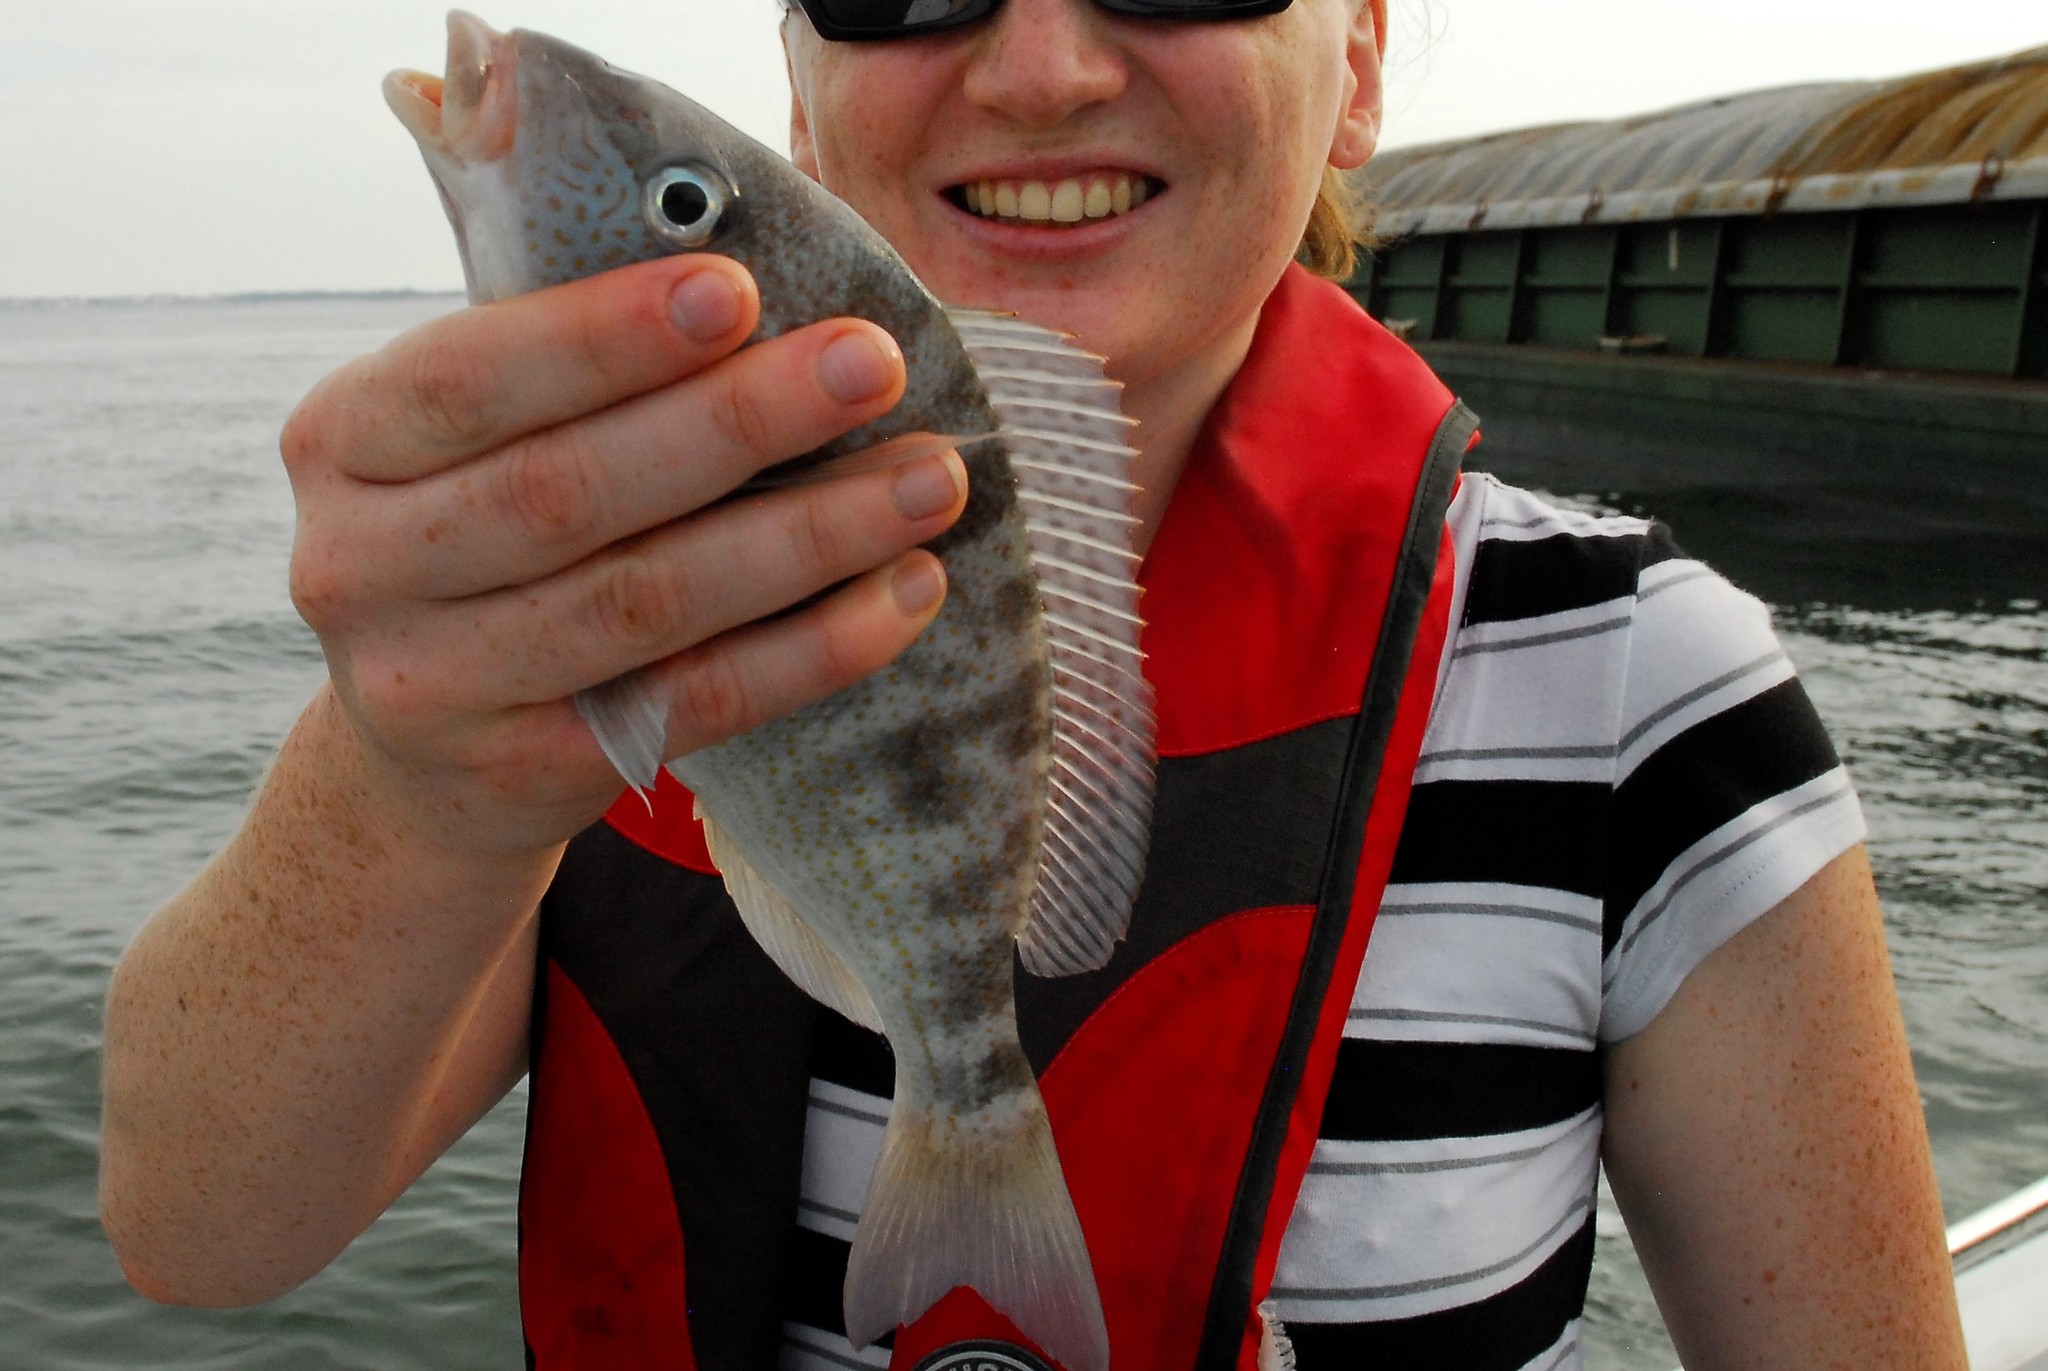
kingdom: Animalia
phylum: Chordata
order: Perciformes
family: Haemulidae
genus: Orthopristis
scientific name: Orthopristis chrysoptera
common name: Pigfish
